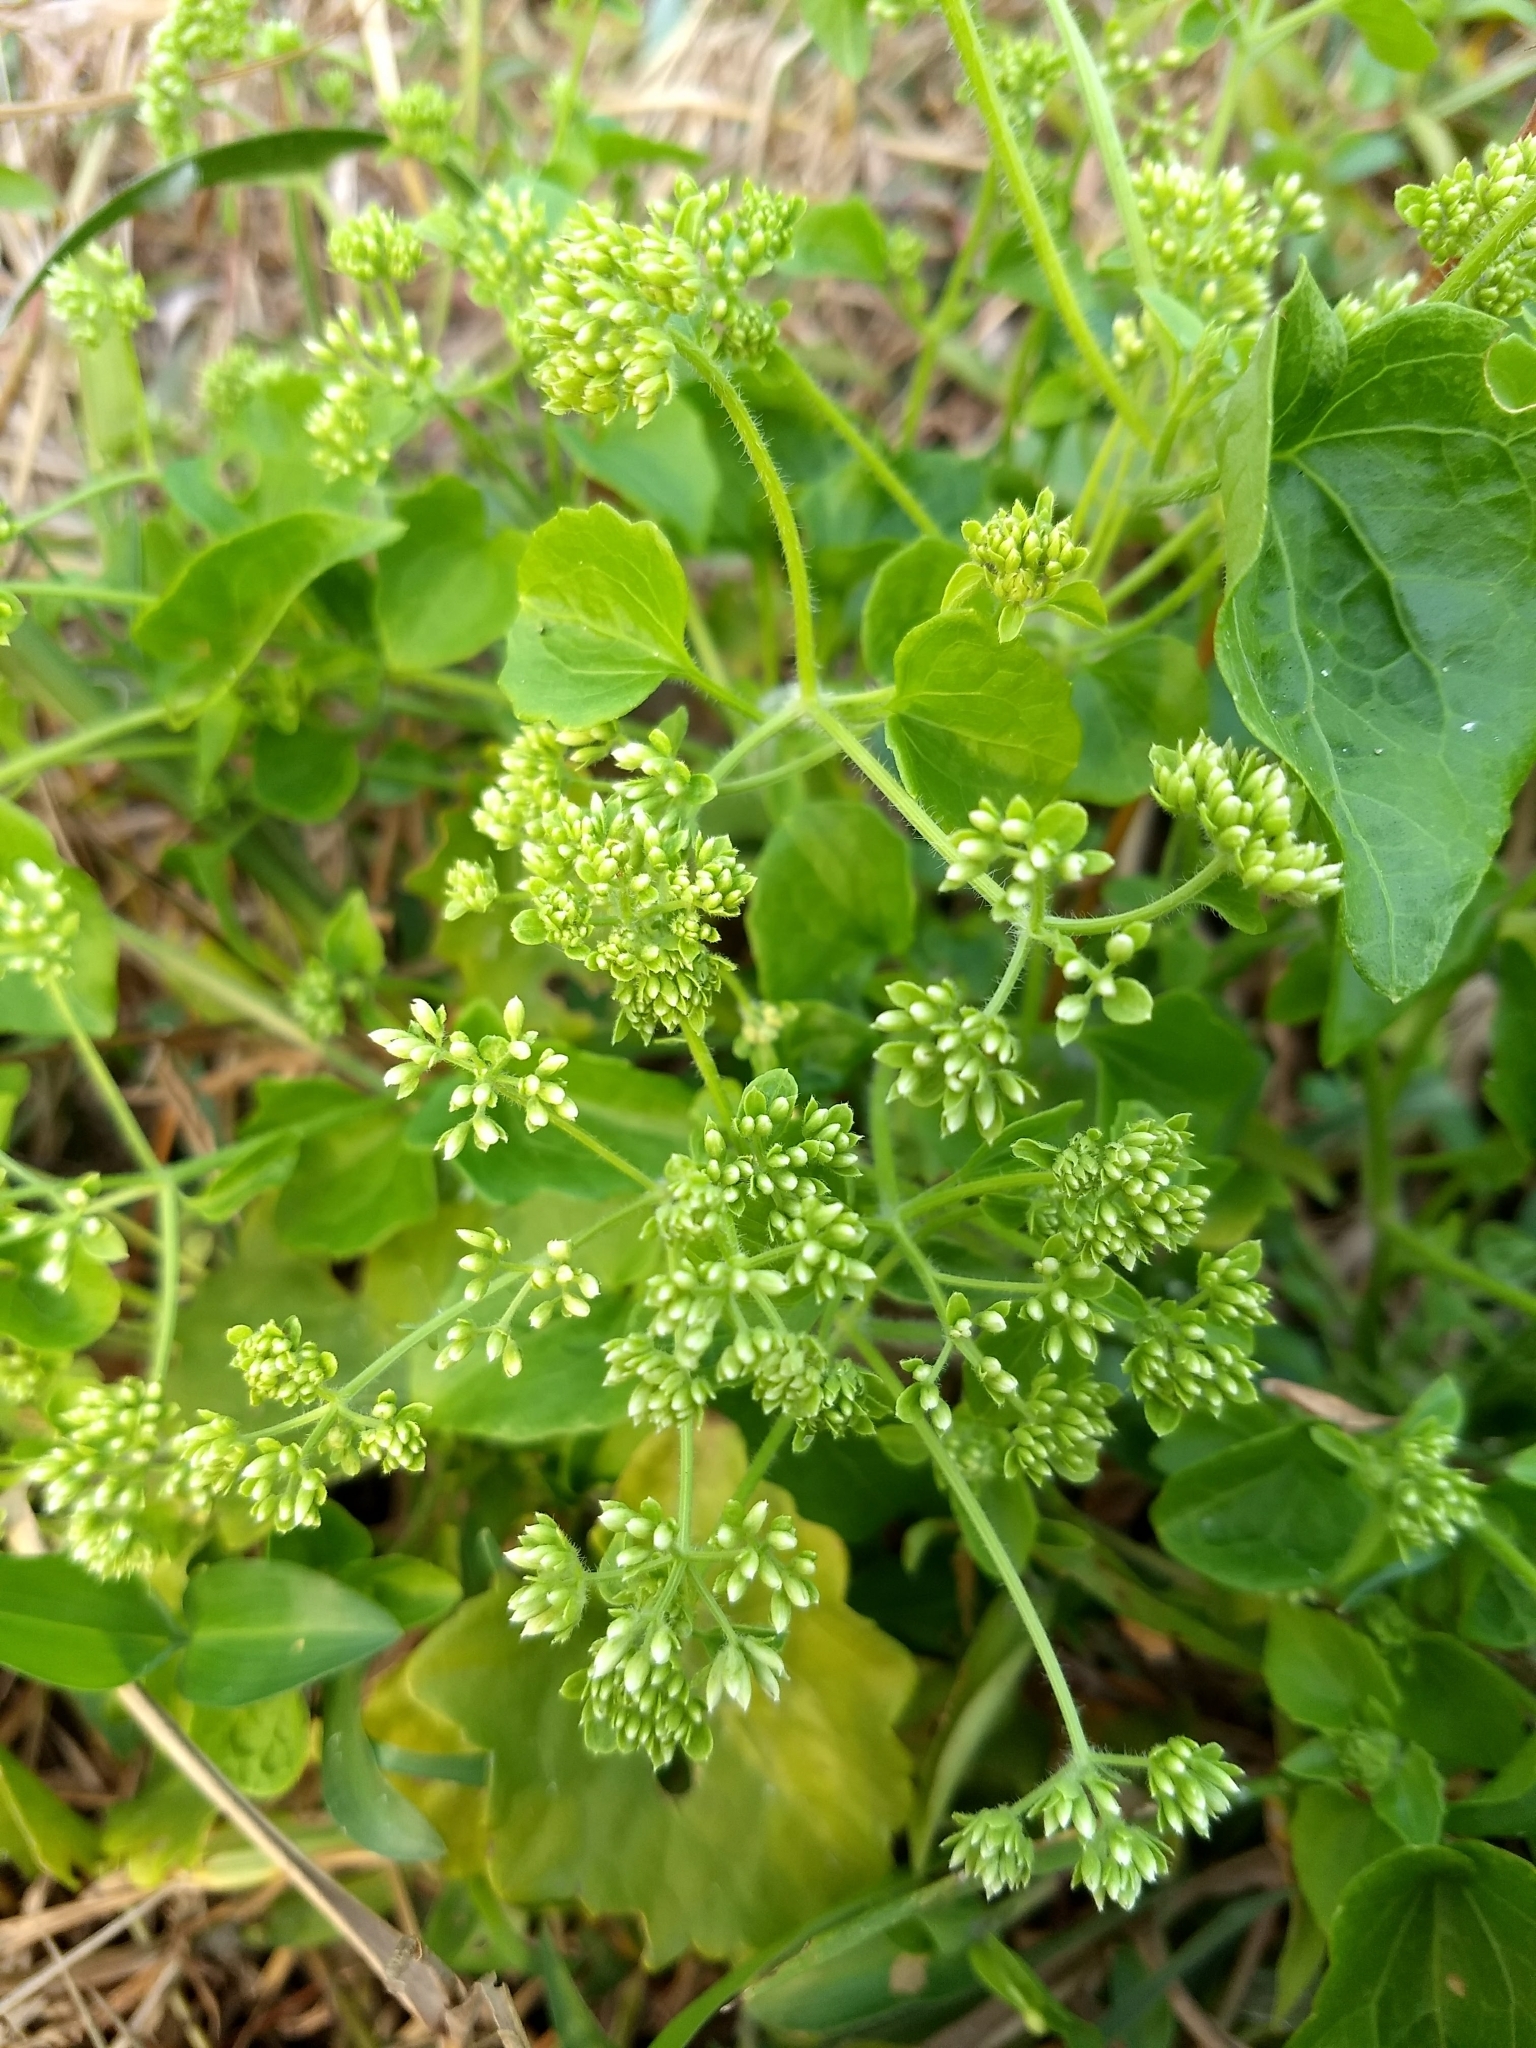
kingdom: Plantae
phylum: Tracheophyta
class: Magnoliopsida
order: Asterales
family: Asteraceae
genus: Mikania
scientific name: Mikania micrantha
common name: Mile-a-minute
